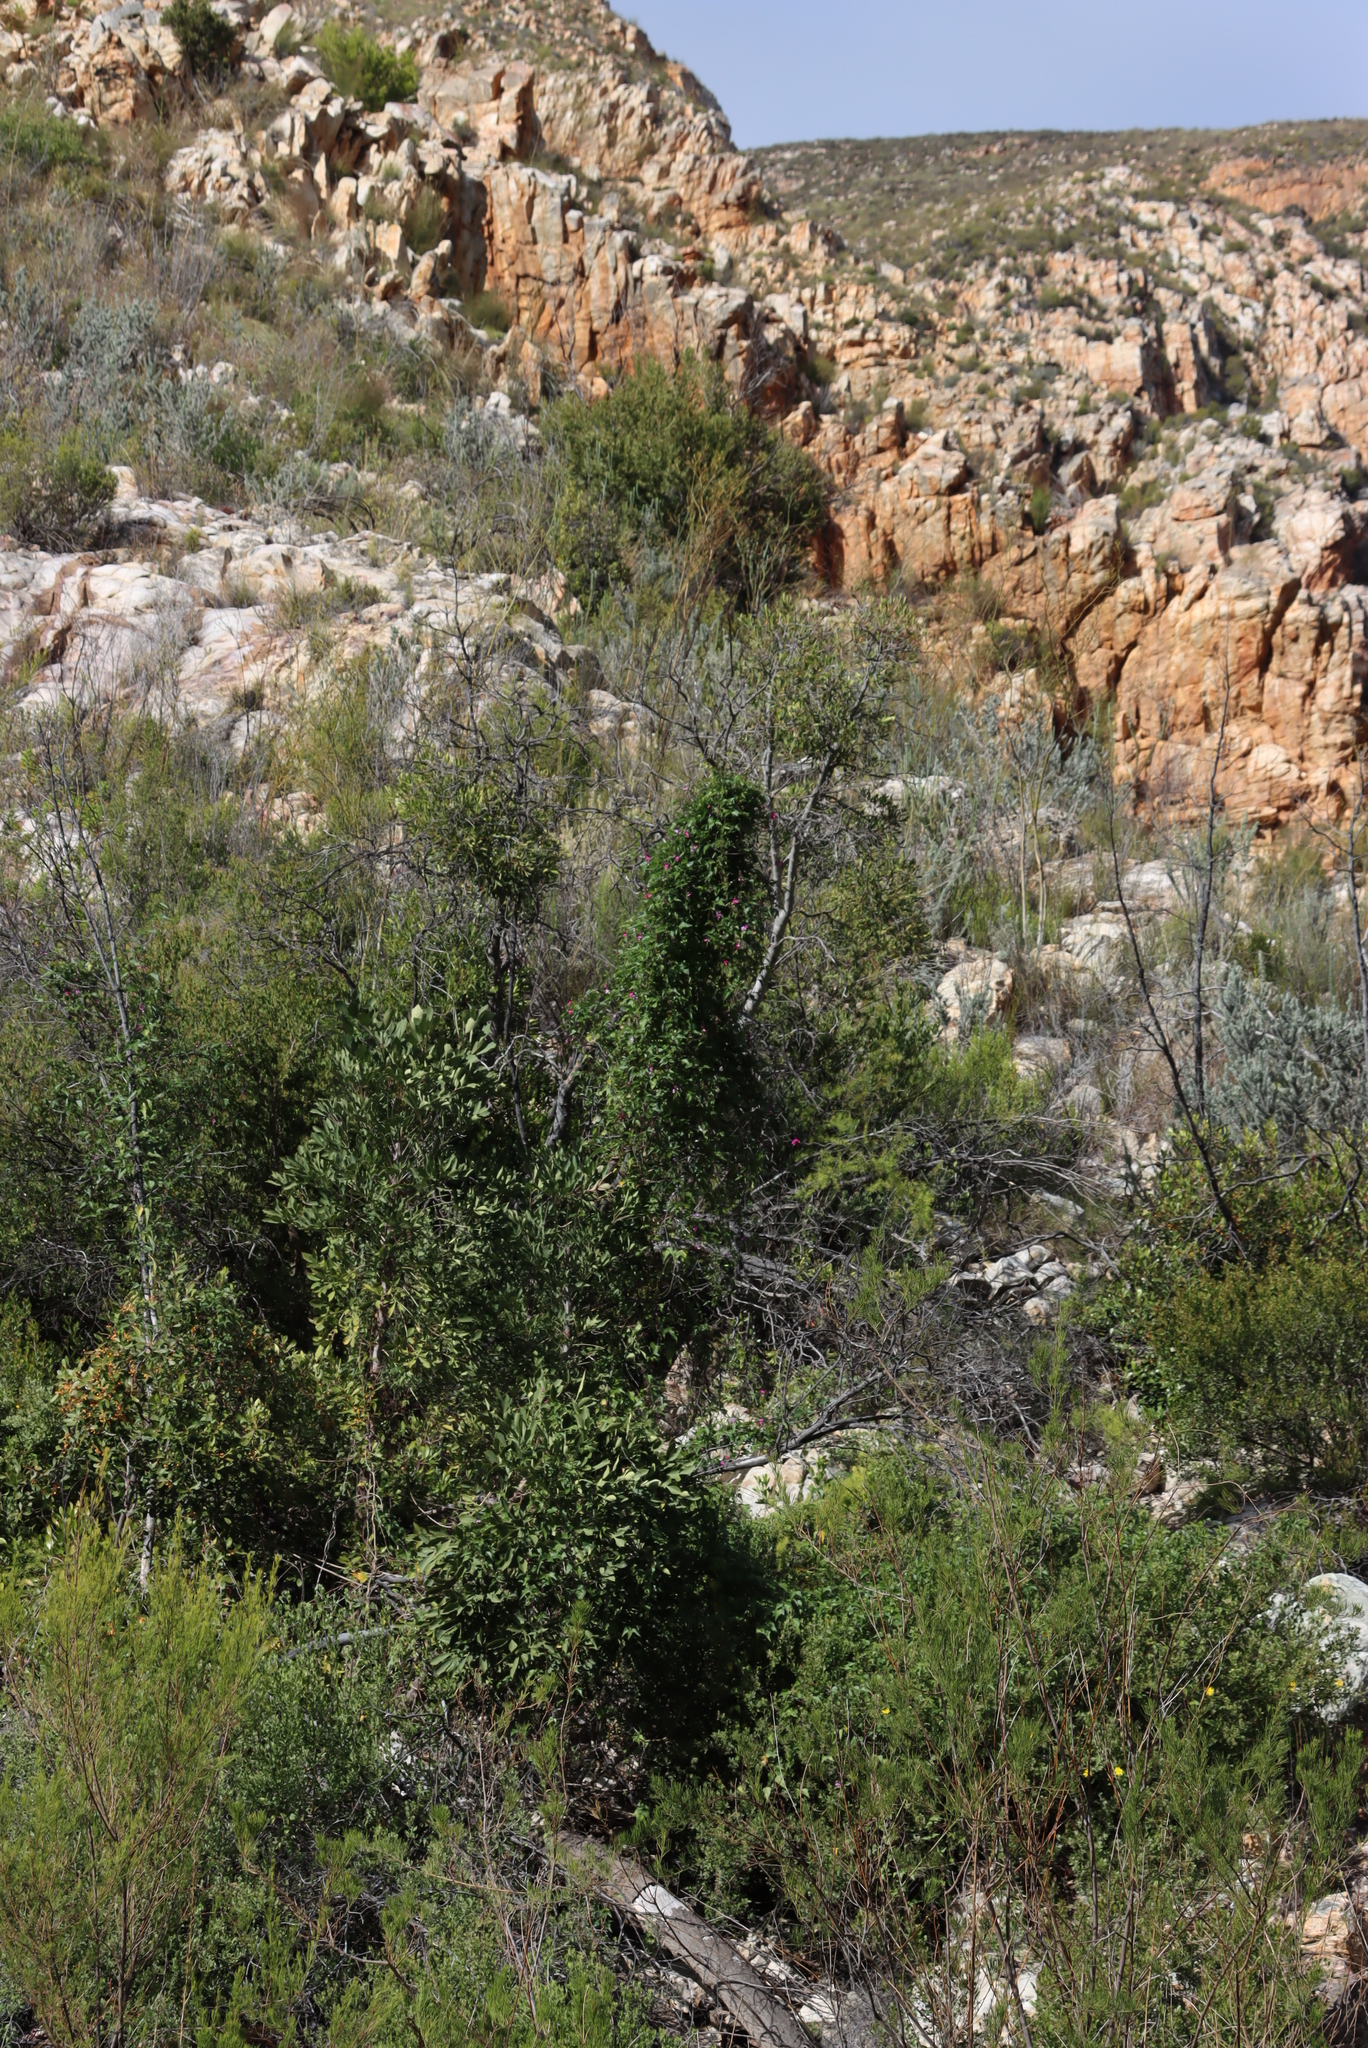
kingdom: Plantae
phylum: Tracheophyta
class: Magnoliopsida
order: Fabales
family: Fabaceae
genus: Dipogon
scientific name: Dipogon lignosus
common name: Okie bean
